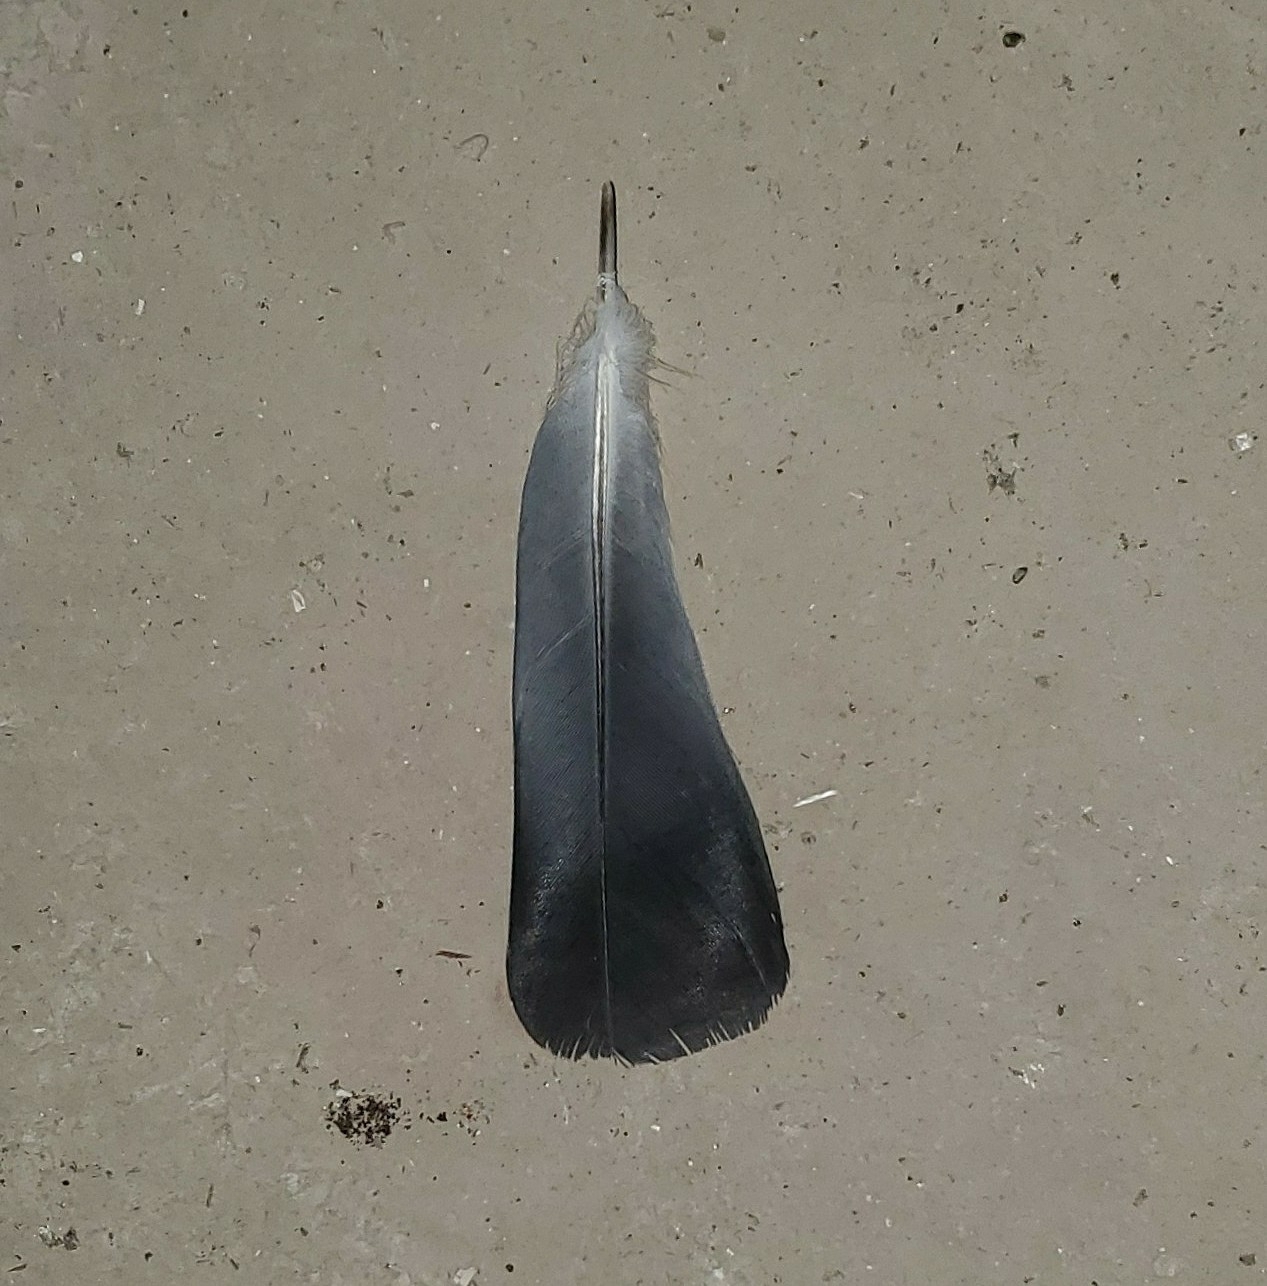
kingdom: Animalia
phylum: Chordata
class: Aves
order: Columbiformes
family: Columbidae
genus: Columba
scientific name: Columba livia
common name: Rock pigeon
